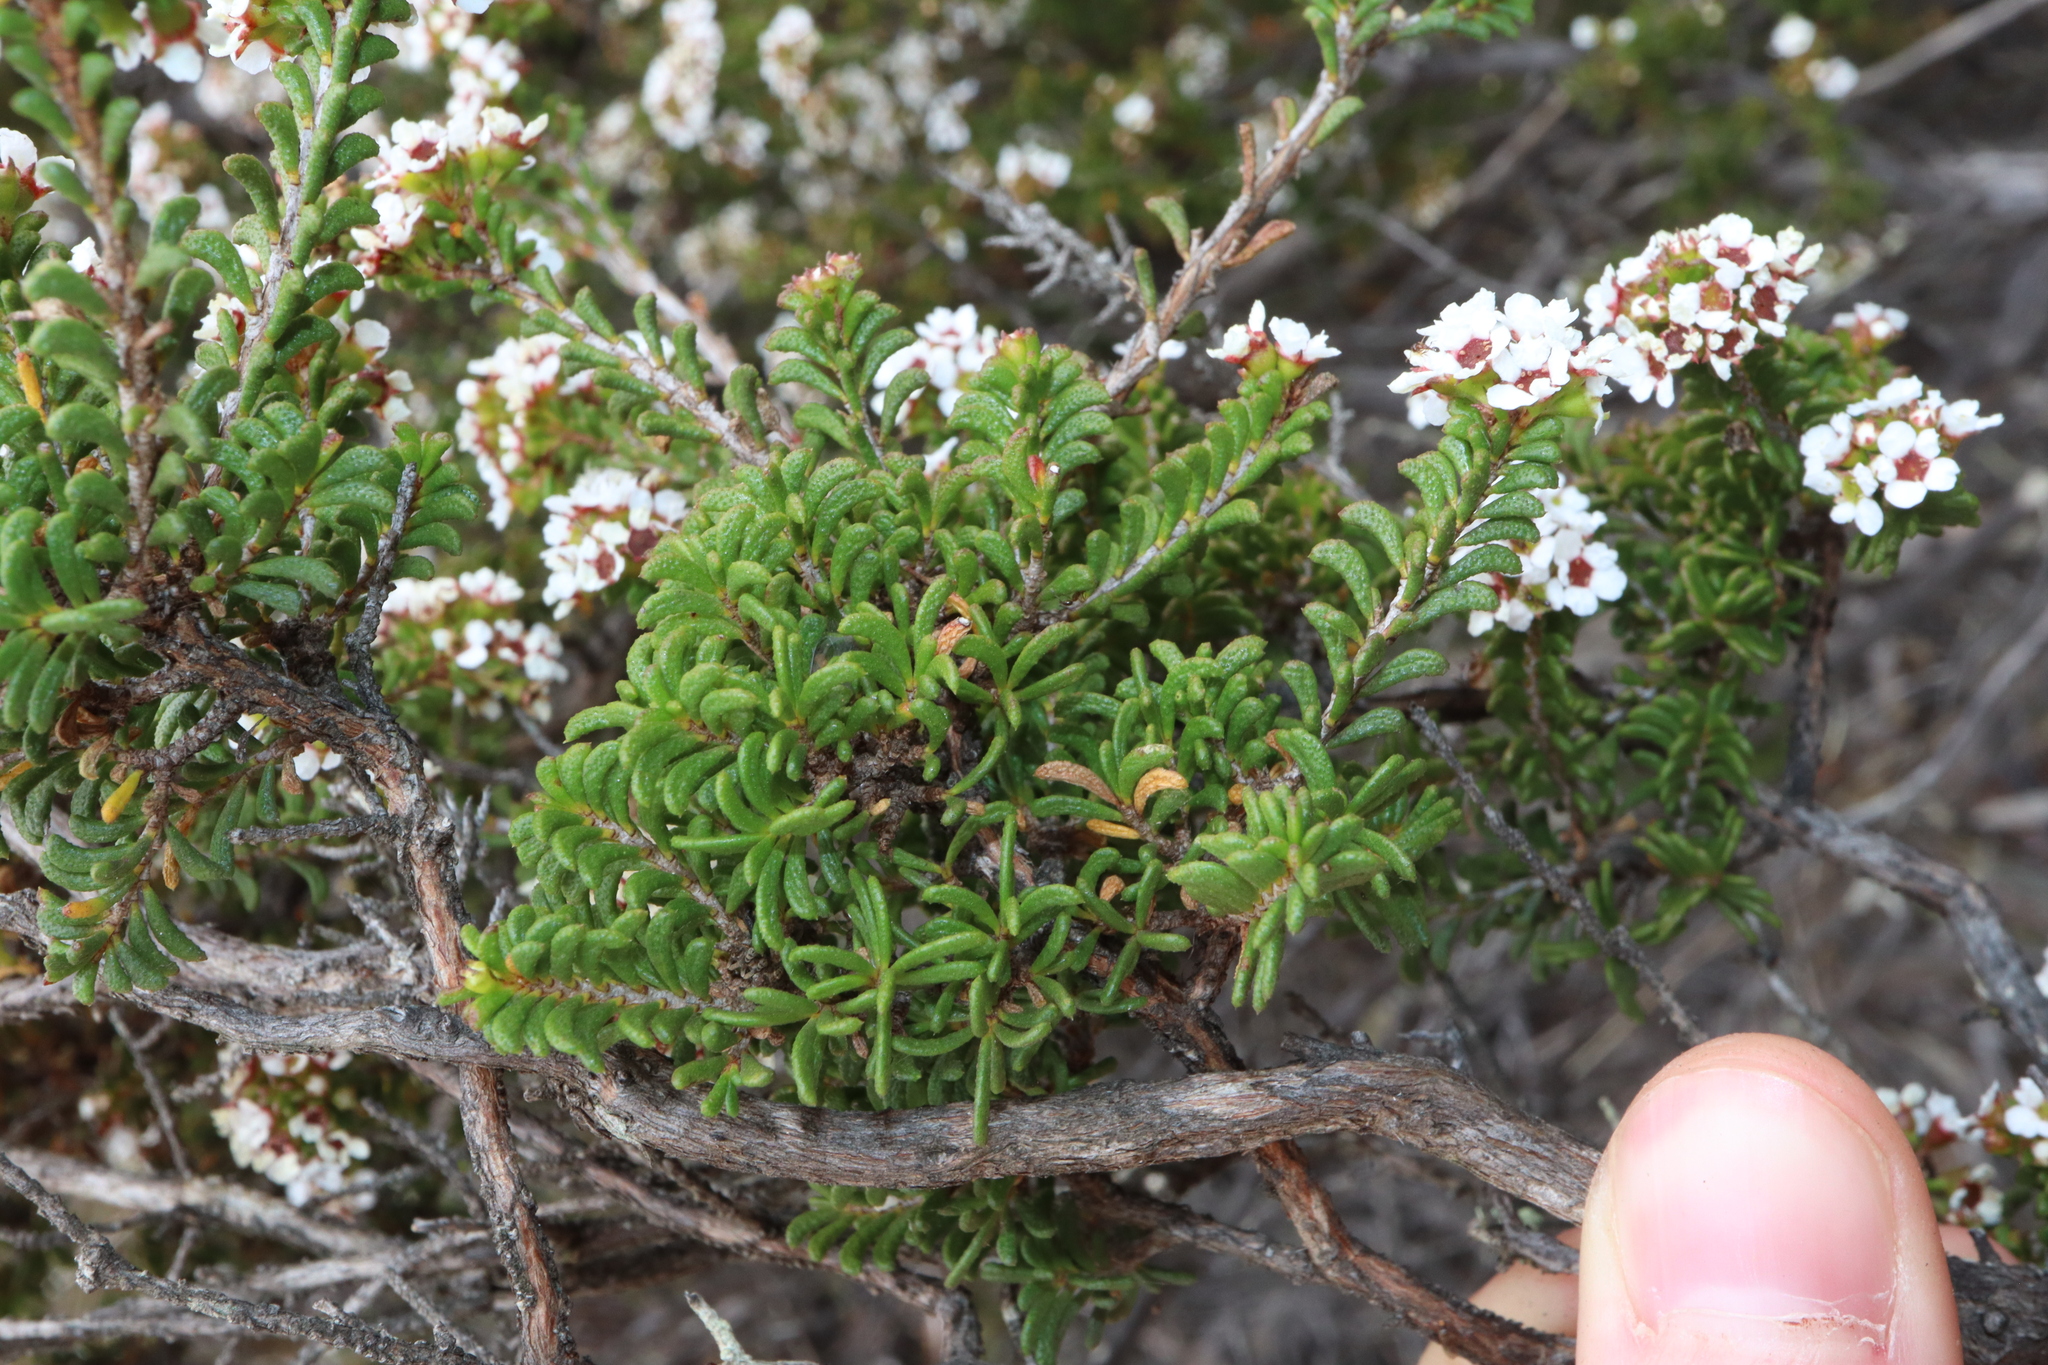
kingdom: Plantae
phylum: Tracheophyta
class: Magnoliopsida
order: Myrtales
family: Myrtaceae
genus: Austrobaeckea
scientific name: Austrobaeckea verrucosa
